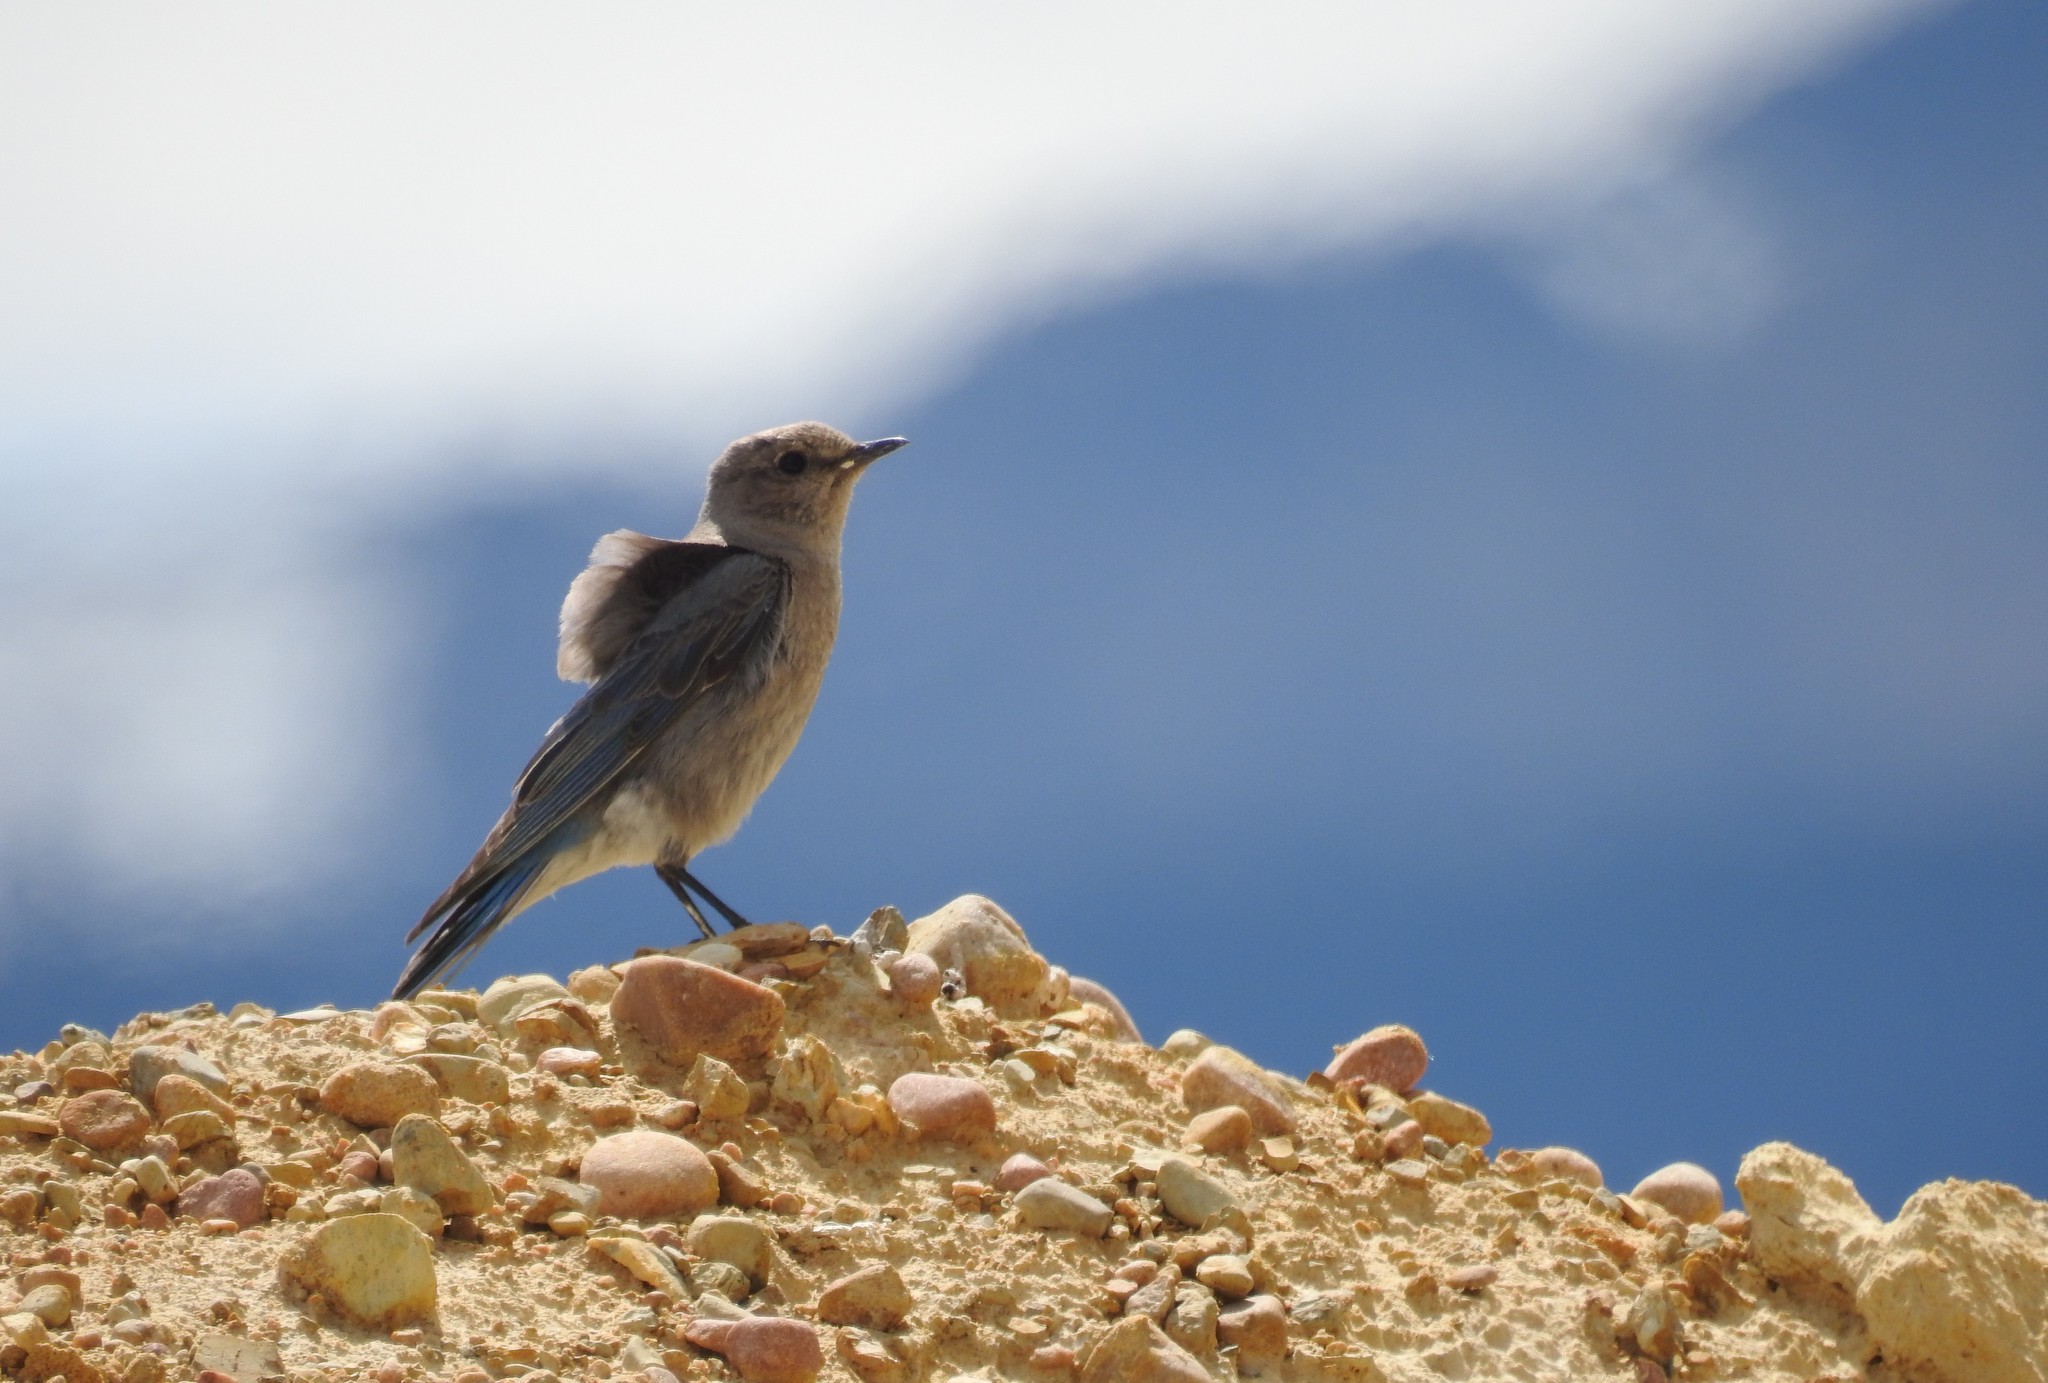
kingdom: Animalia
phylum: Chordata
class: Aves
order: Passeriformes
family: Turdidae
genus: Sialia
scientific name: Sialia currucoides
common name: Mountain bluebird
